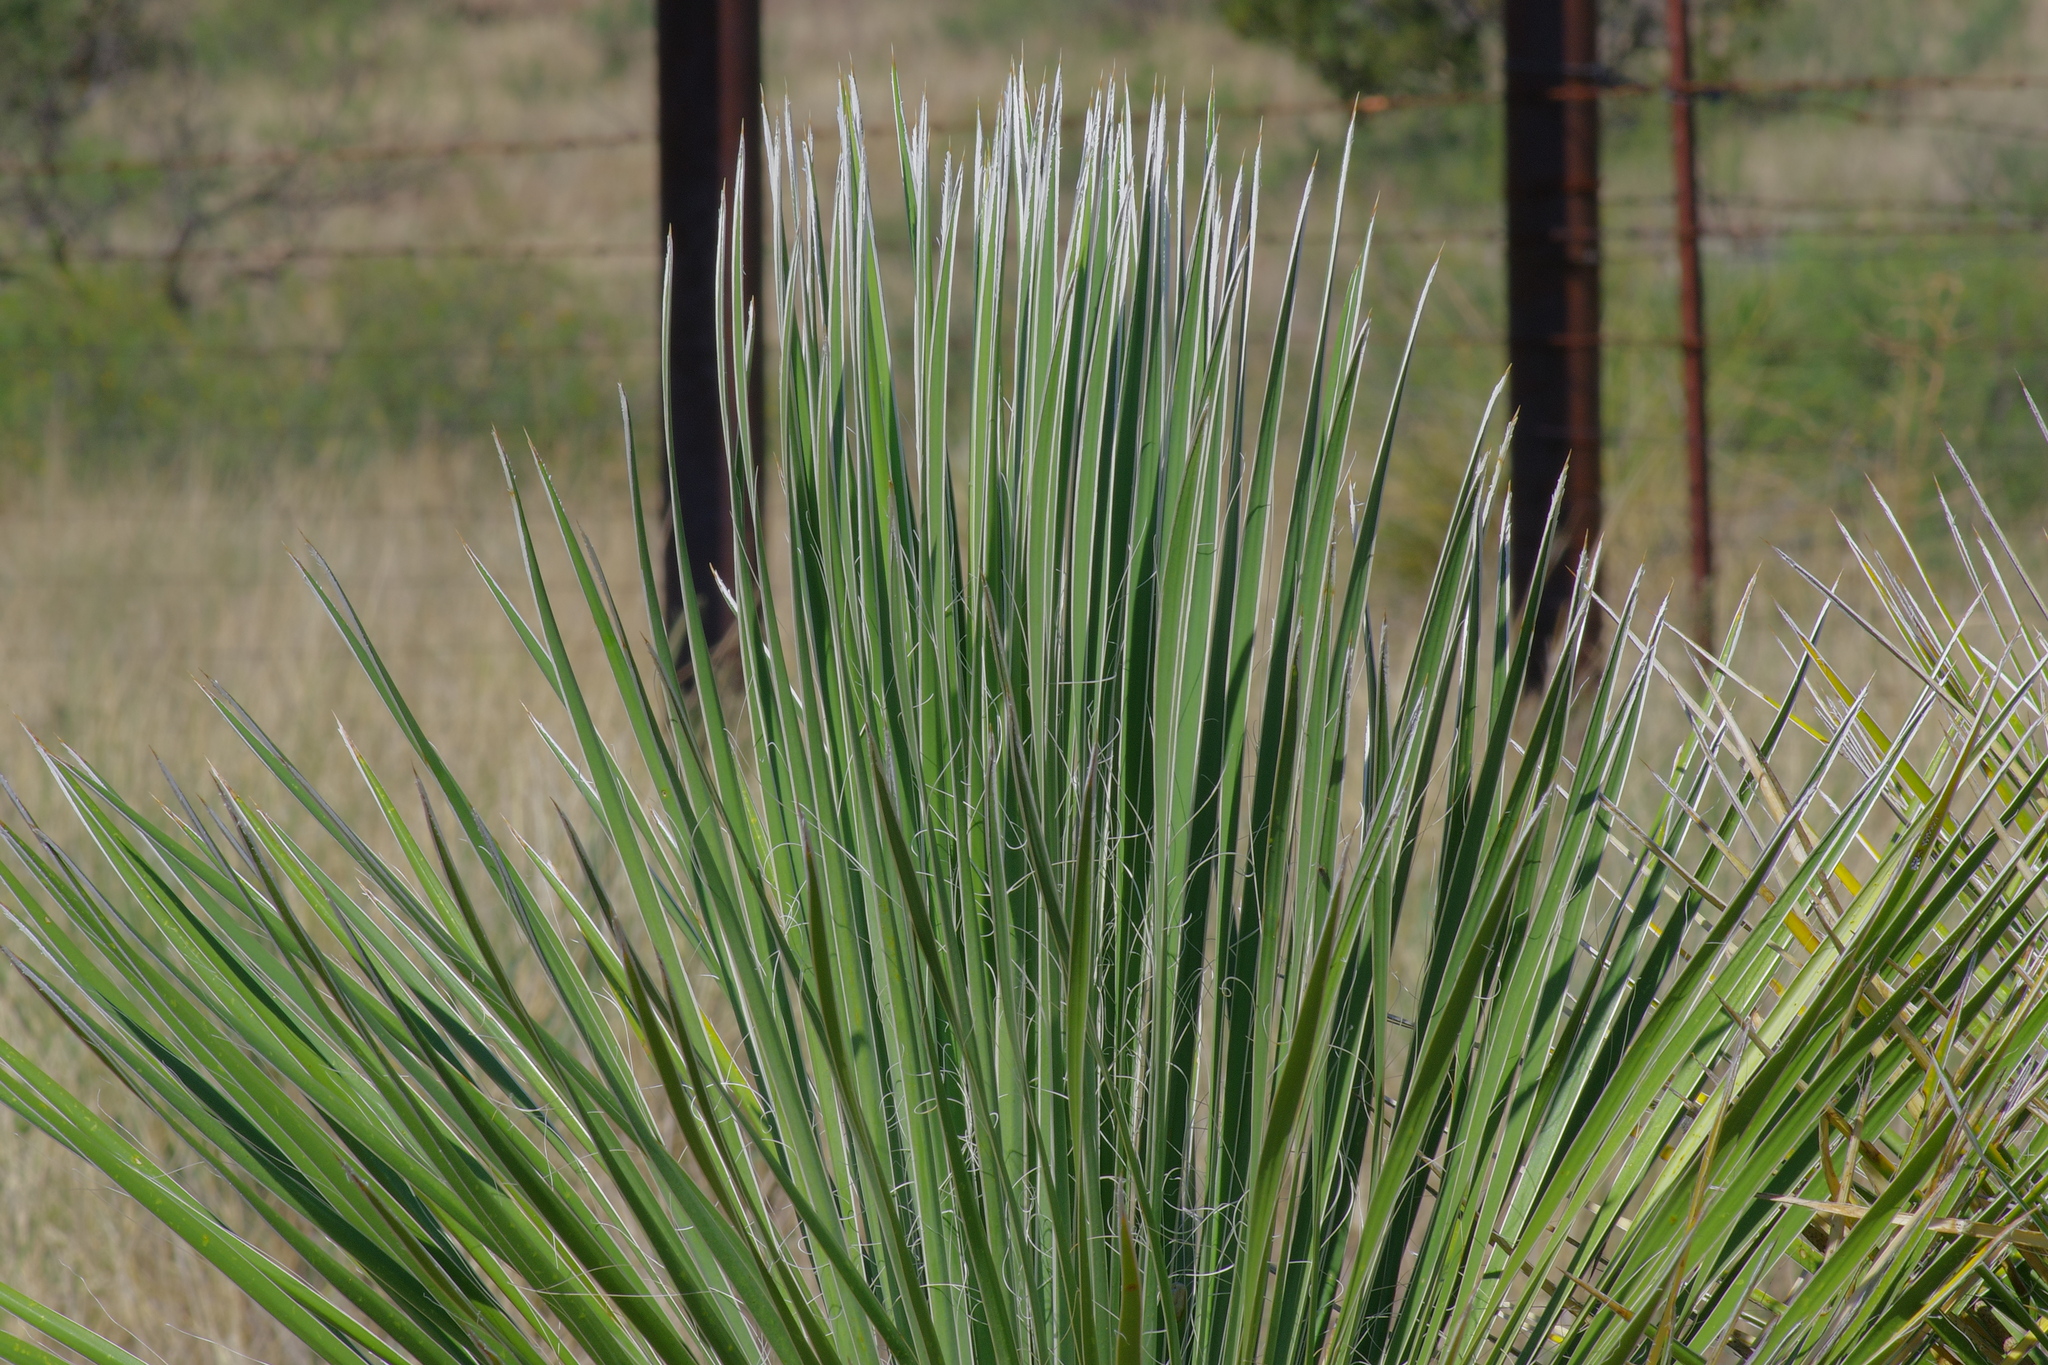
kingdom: Plantae
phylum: Tracheophyta
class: Liliopsida
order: Asparagales
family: Asparagaceae
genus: Yucca
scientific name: Yucca elata
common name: Palmella
